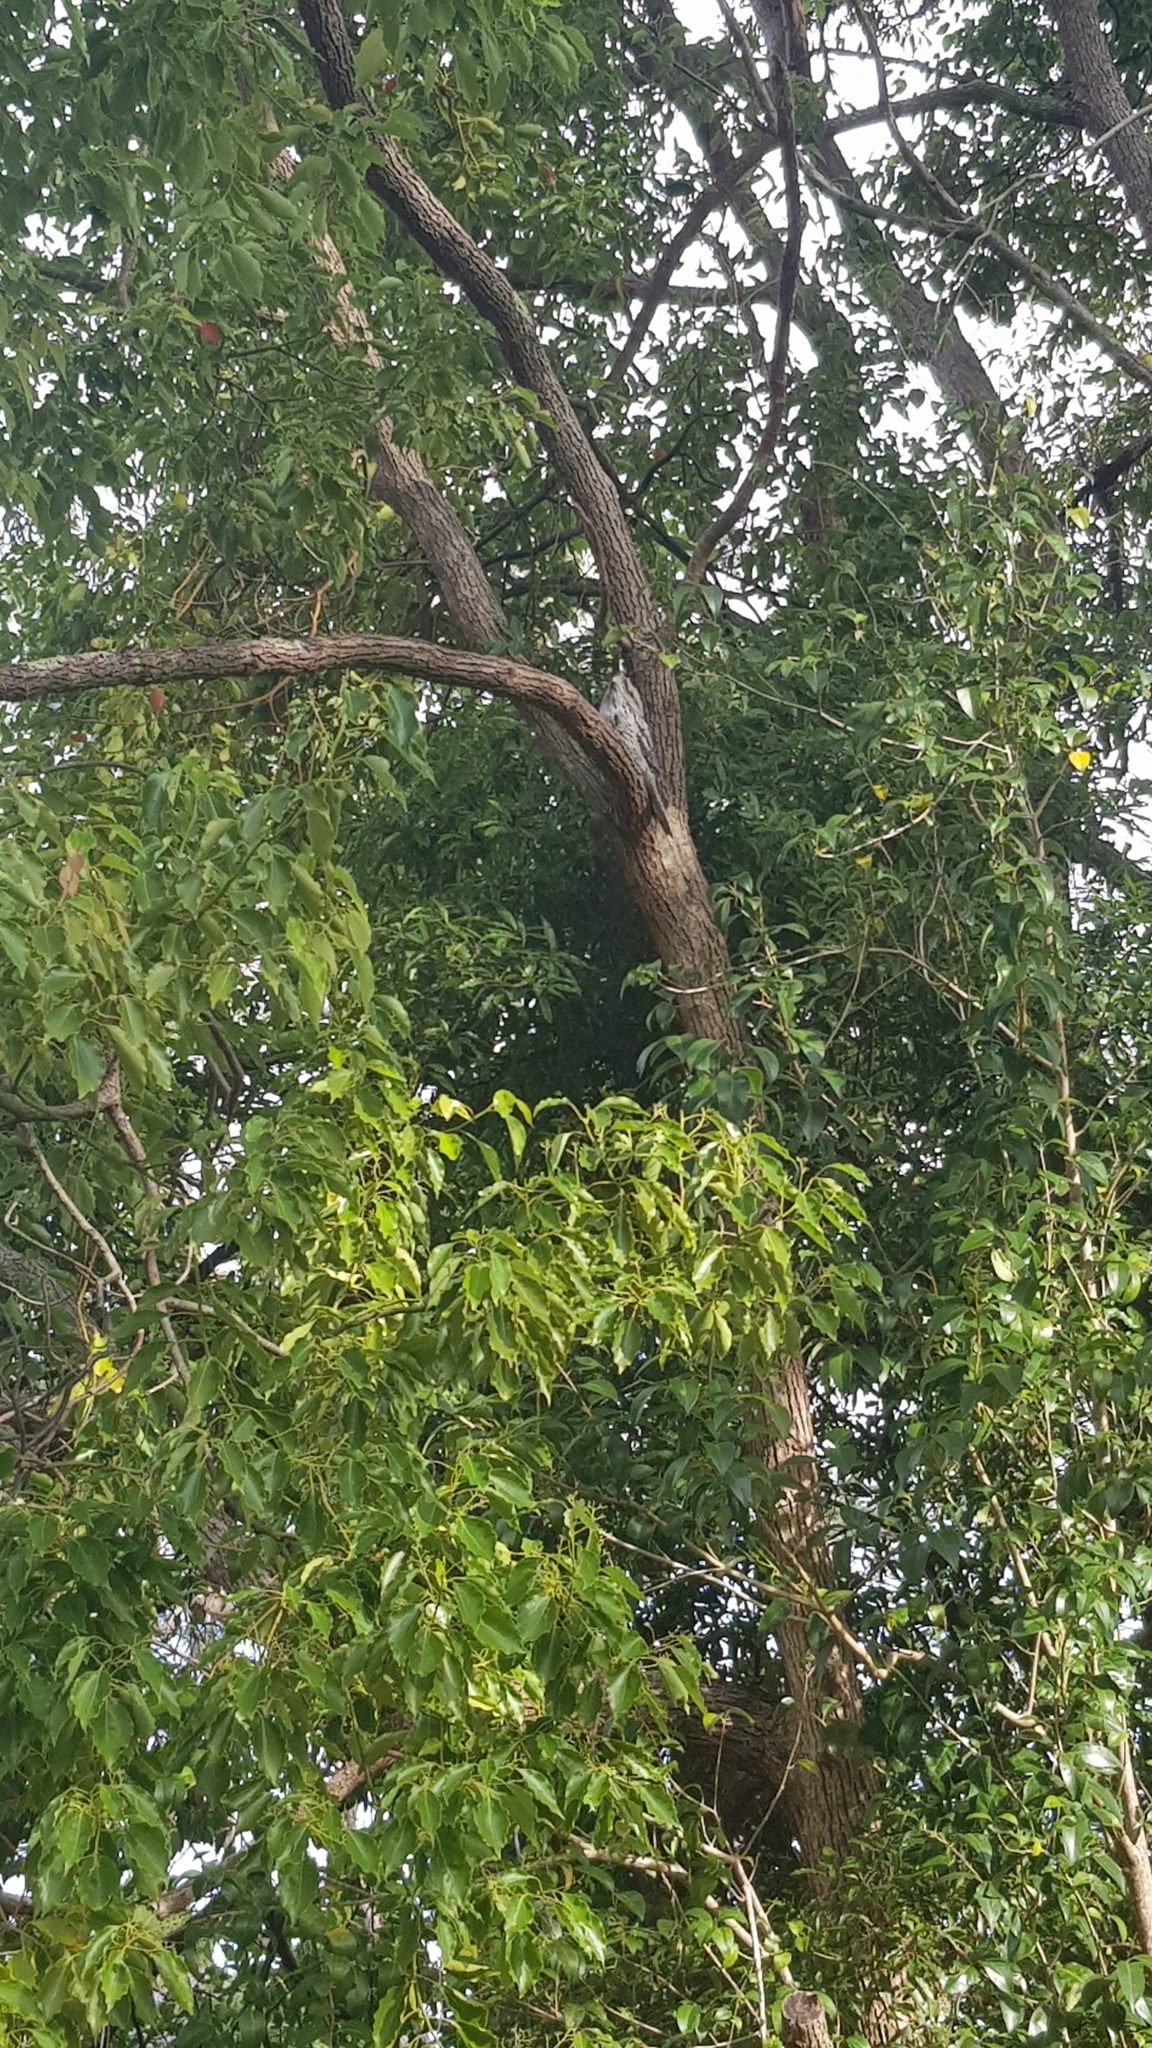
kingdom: Animalia
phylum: Chordata
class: Aves
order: Caprimulgiformes
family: Podargidae
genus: Podargus
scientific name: Podargus strigoides
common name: Tawny frogmouth
